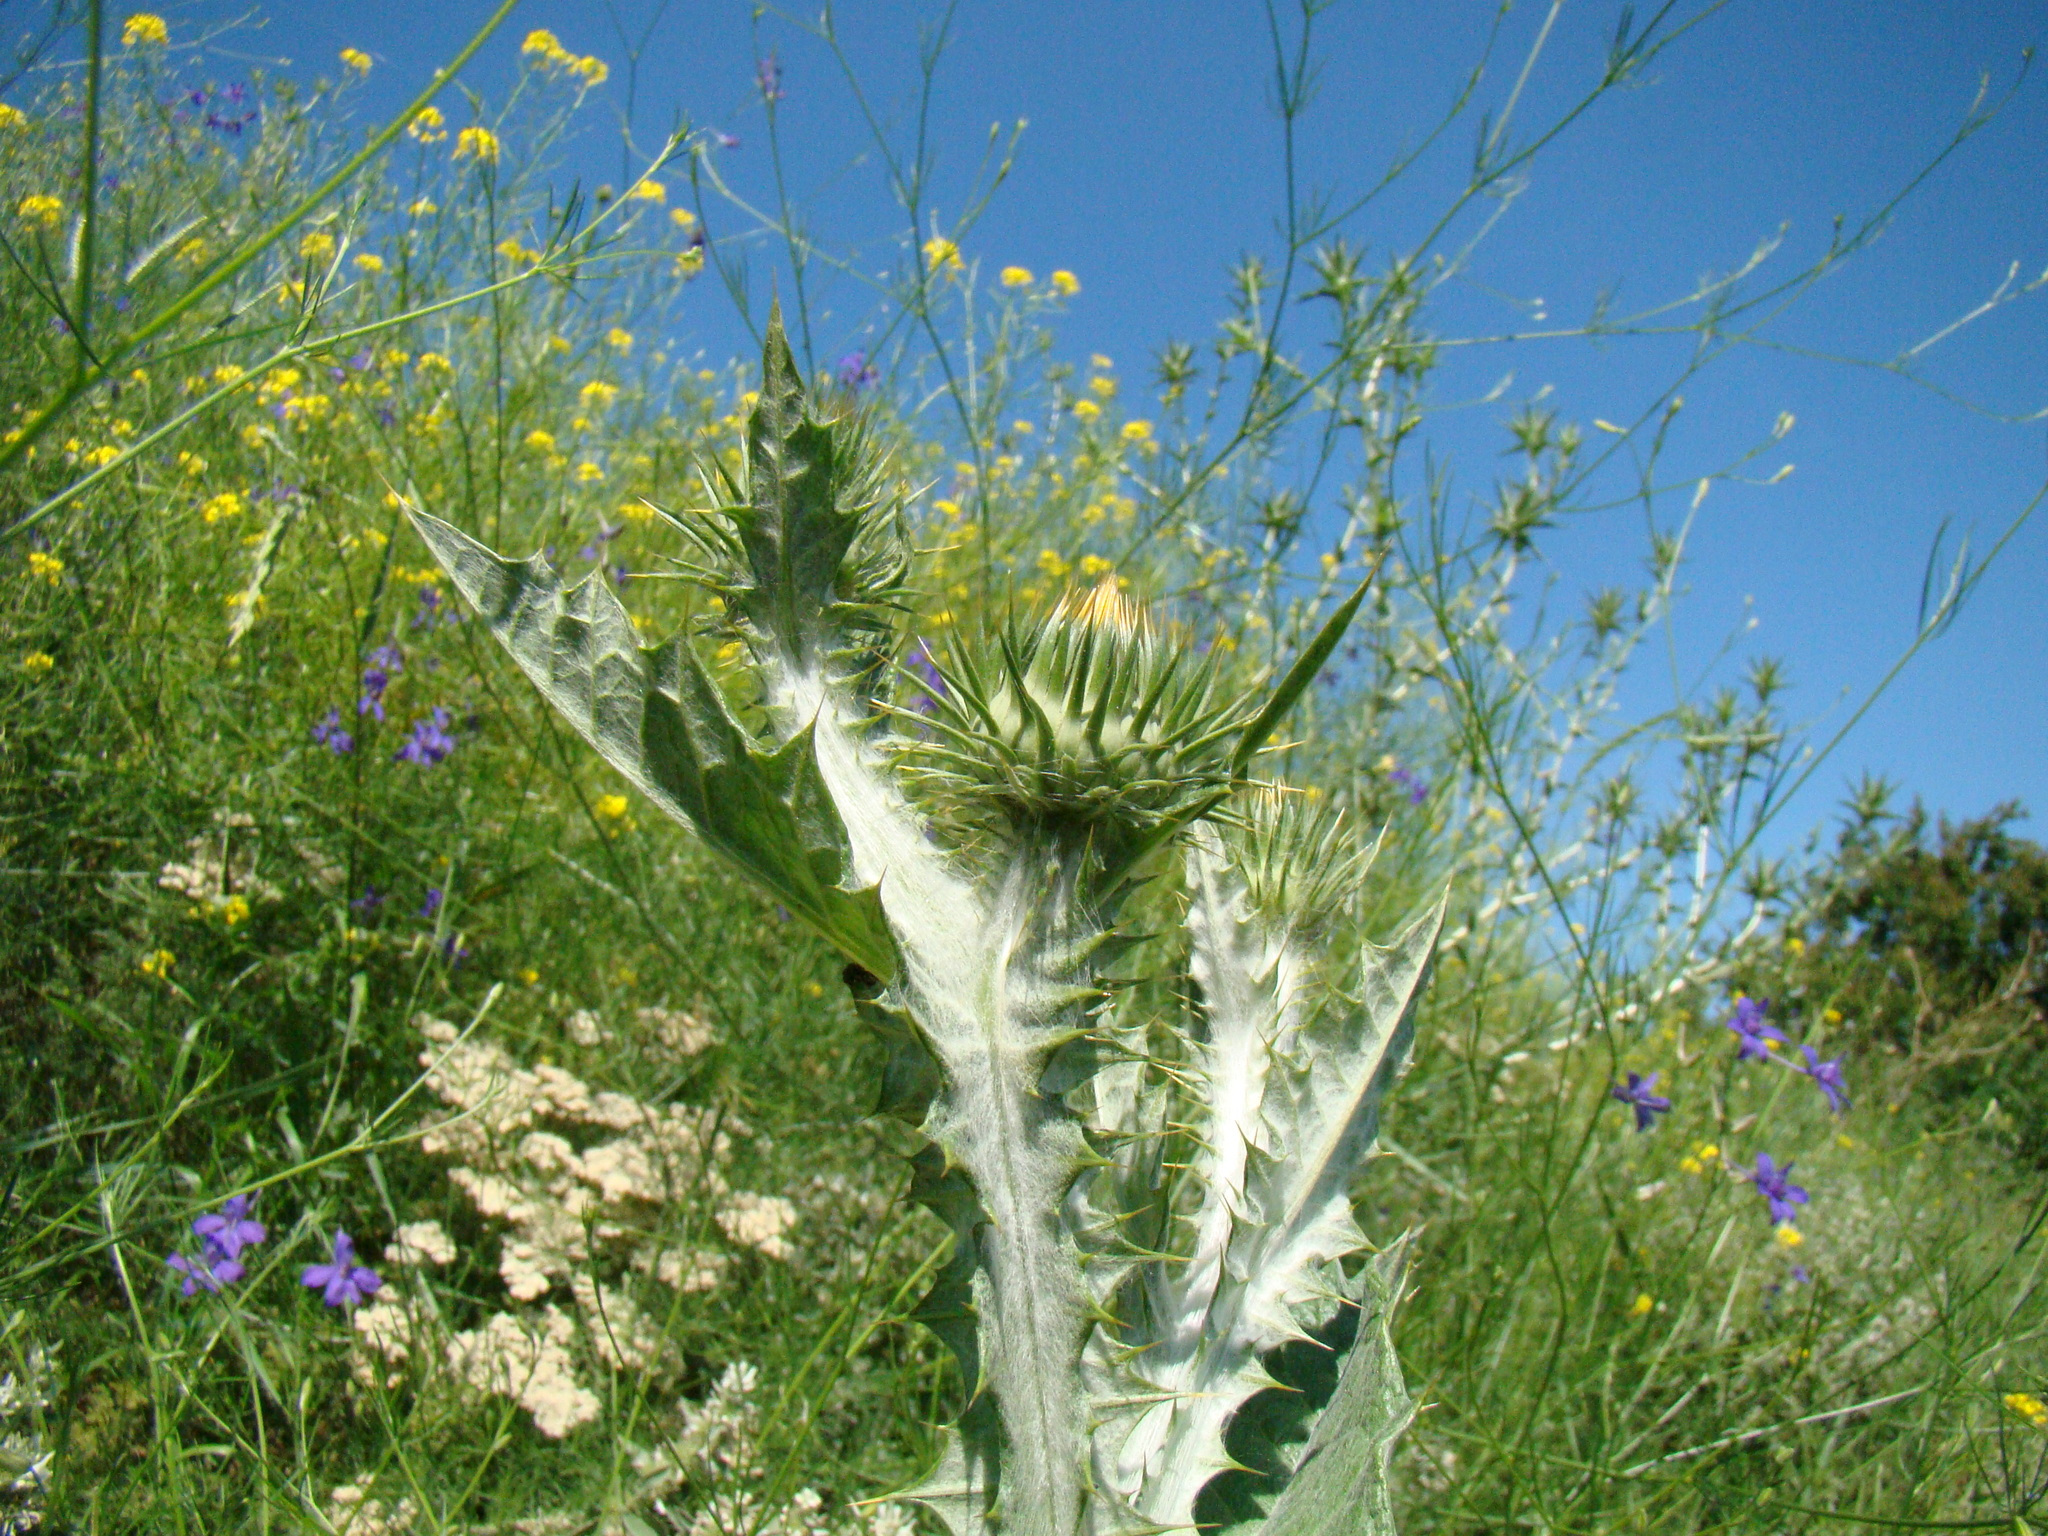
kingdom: Plantae
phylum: Tracheophyta
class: Magnoliopsida
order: Asterales
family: Asteraceae
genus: Onopordum
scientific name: Onopordum acanthium
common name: Scotch thistle
